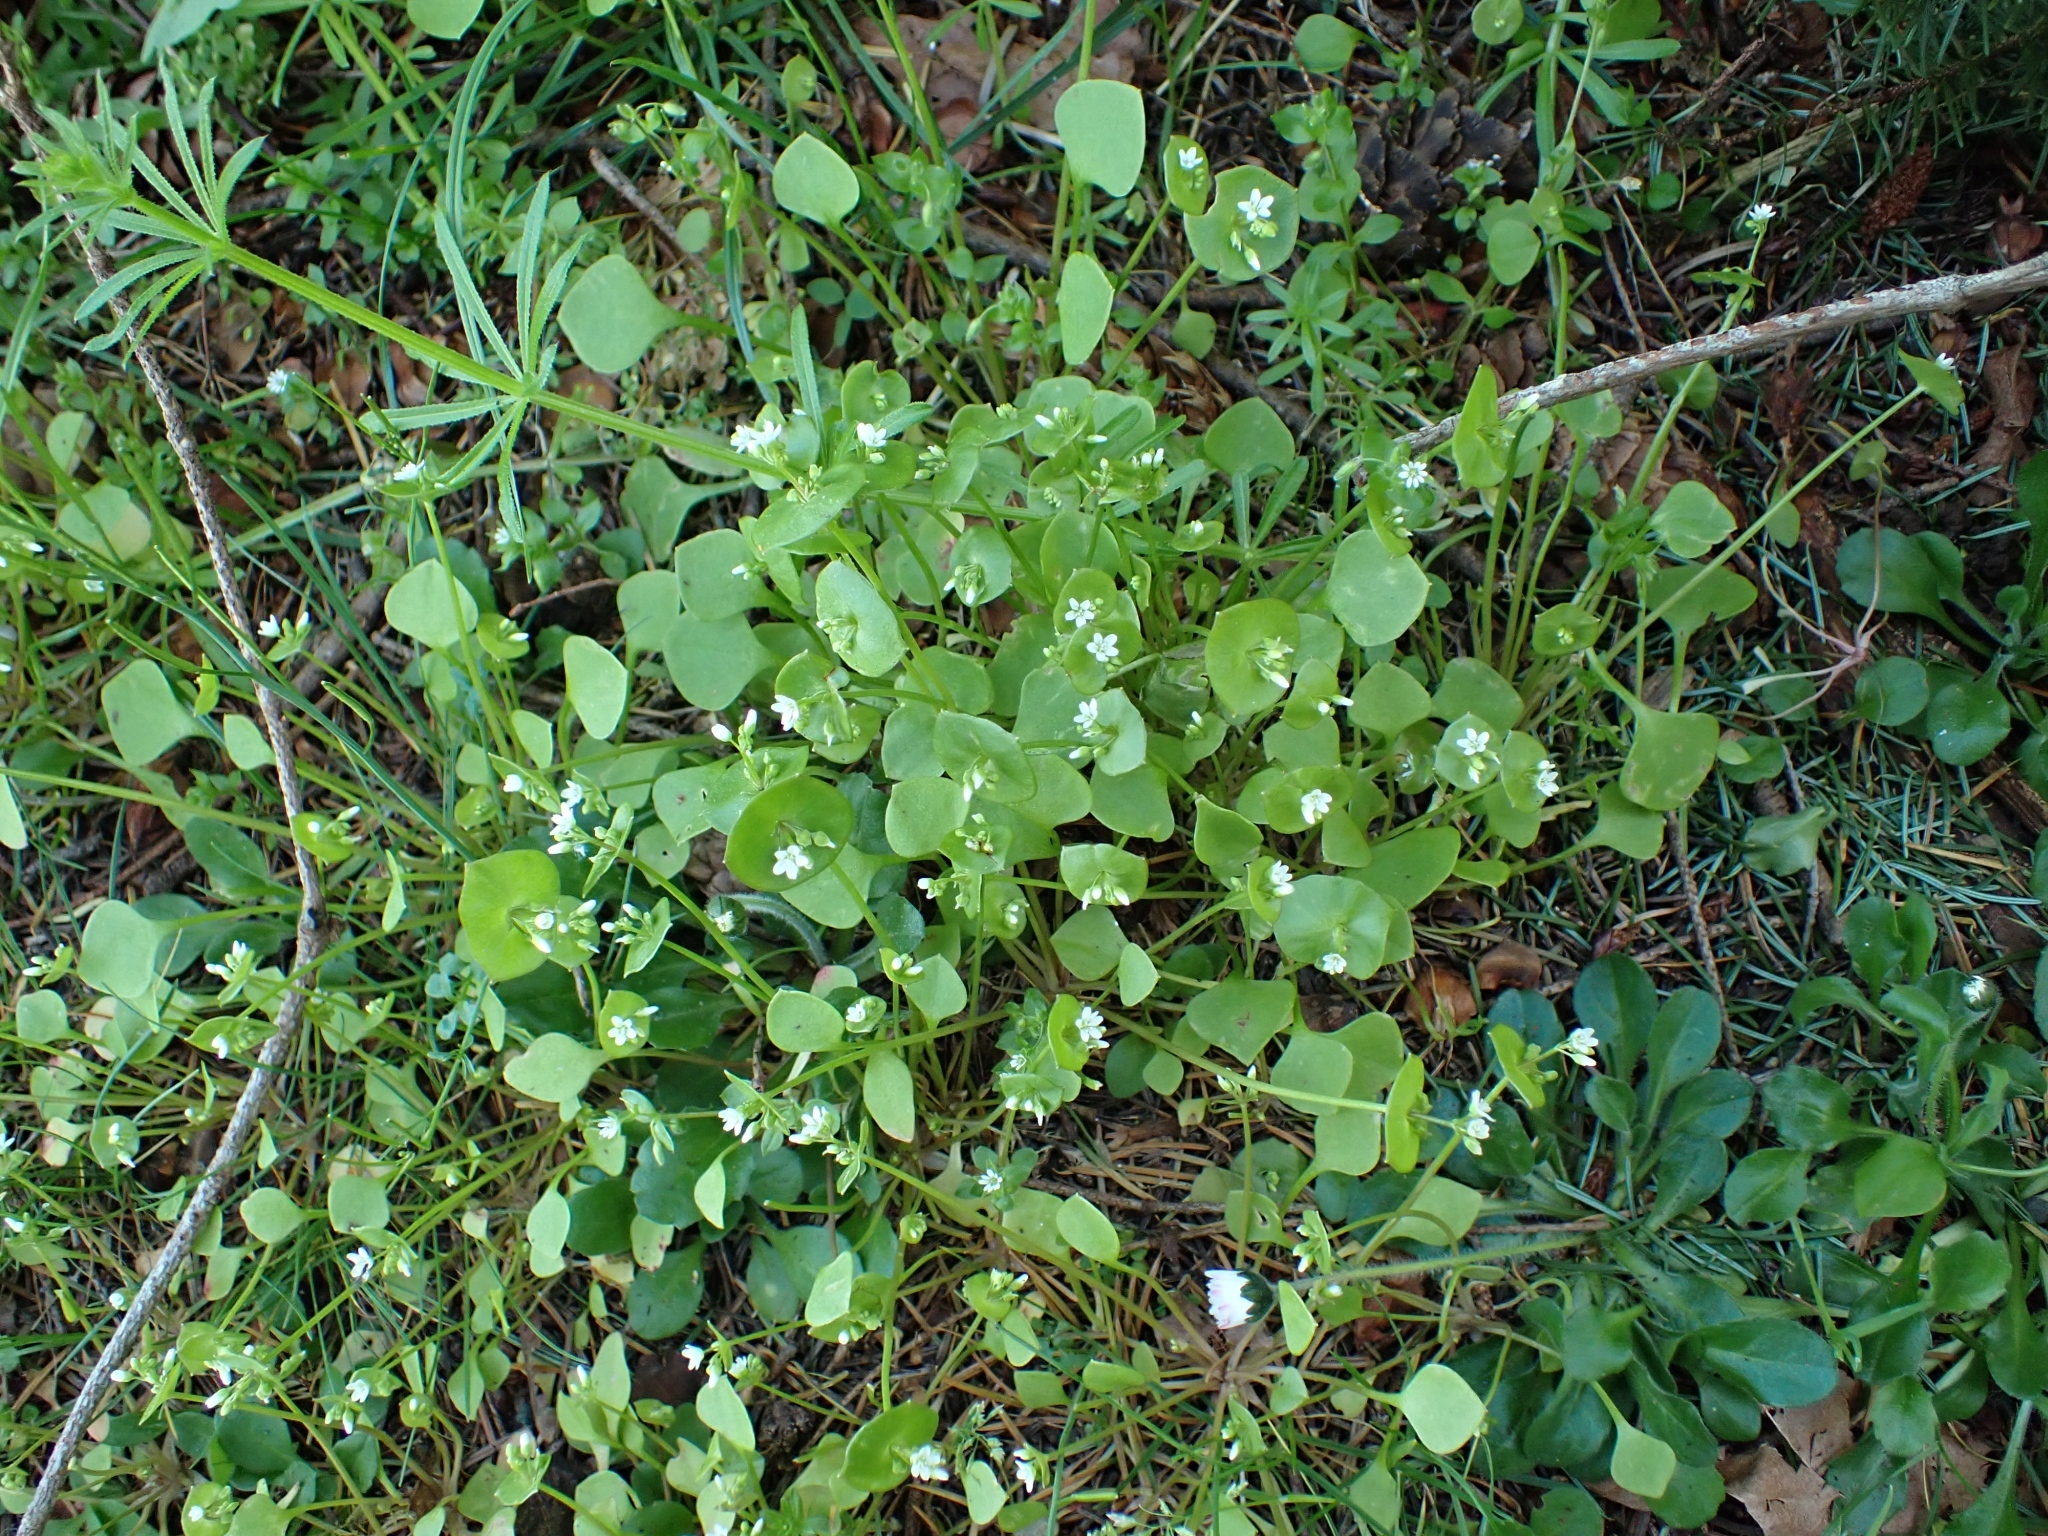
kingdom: Plantae
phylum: Tracheophyta
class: Magnoliopsida
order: Caryophyllales
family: Montiaceae
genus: Claytonia
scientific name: Claytonia perfoliata
